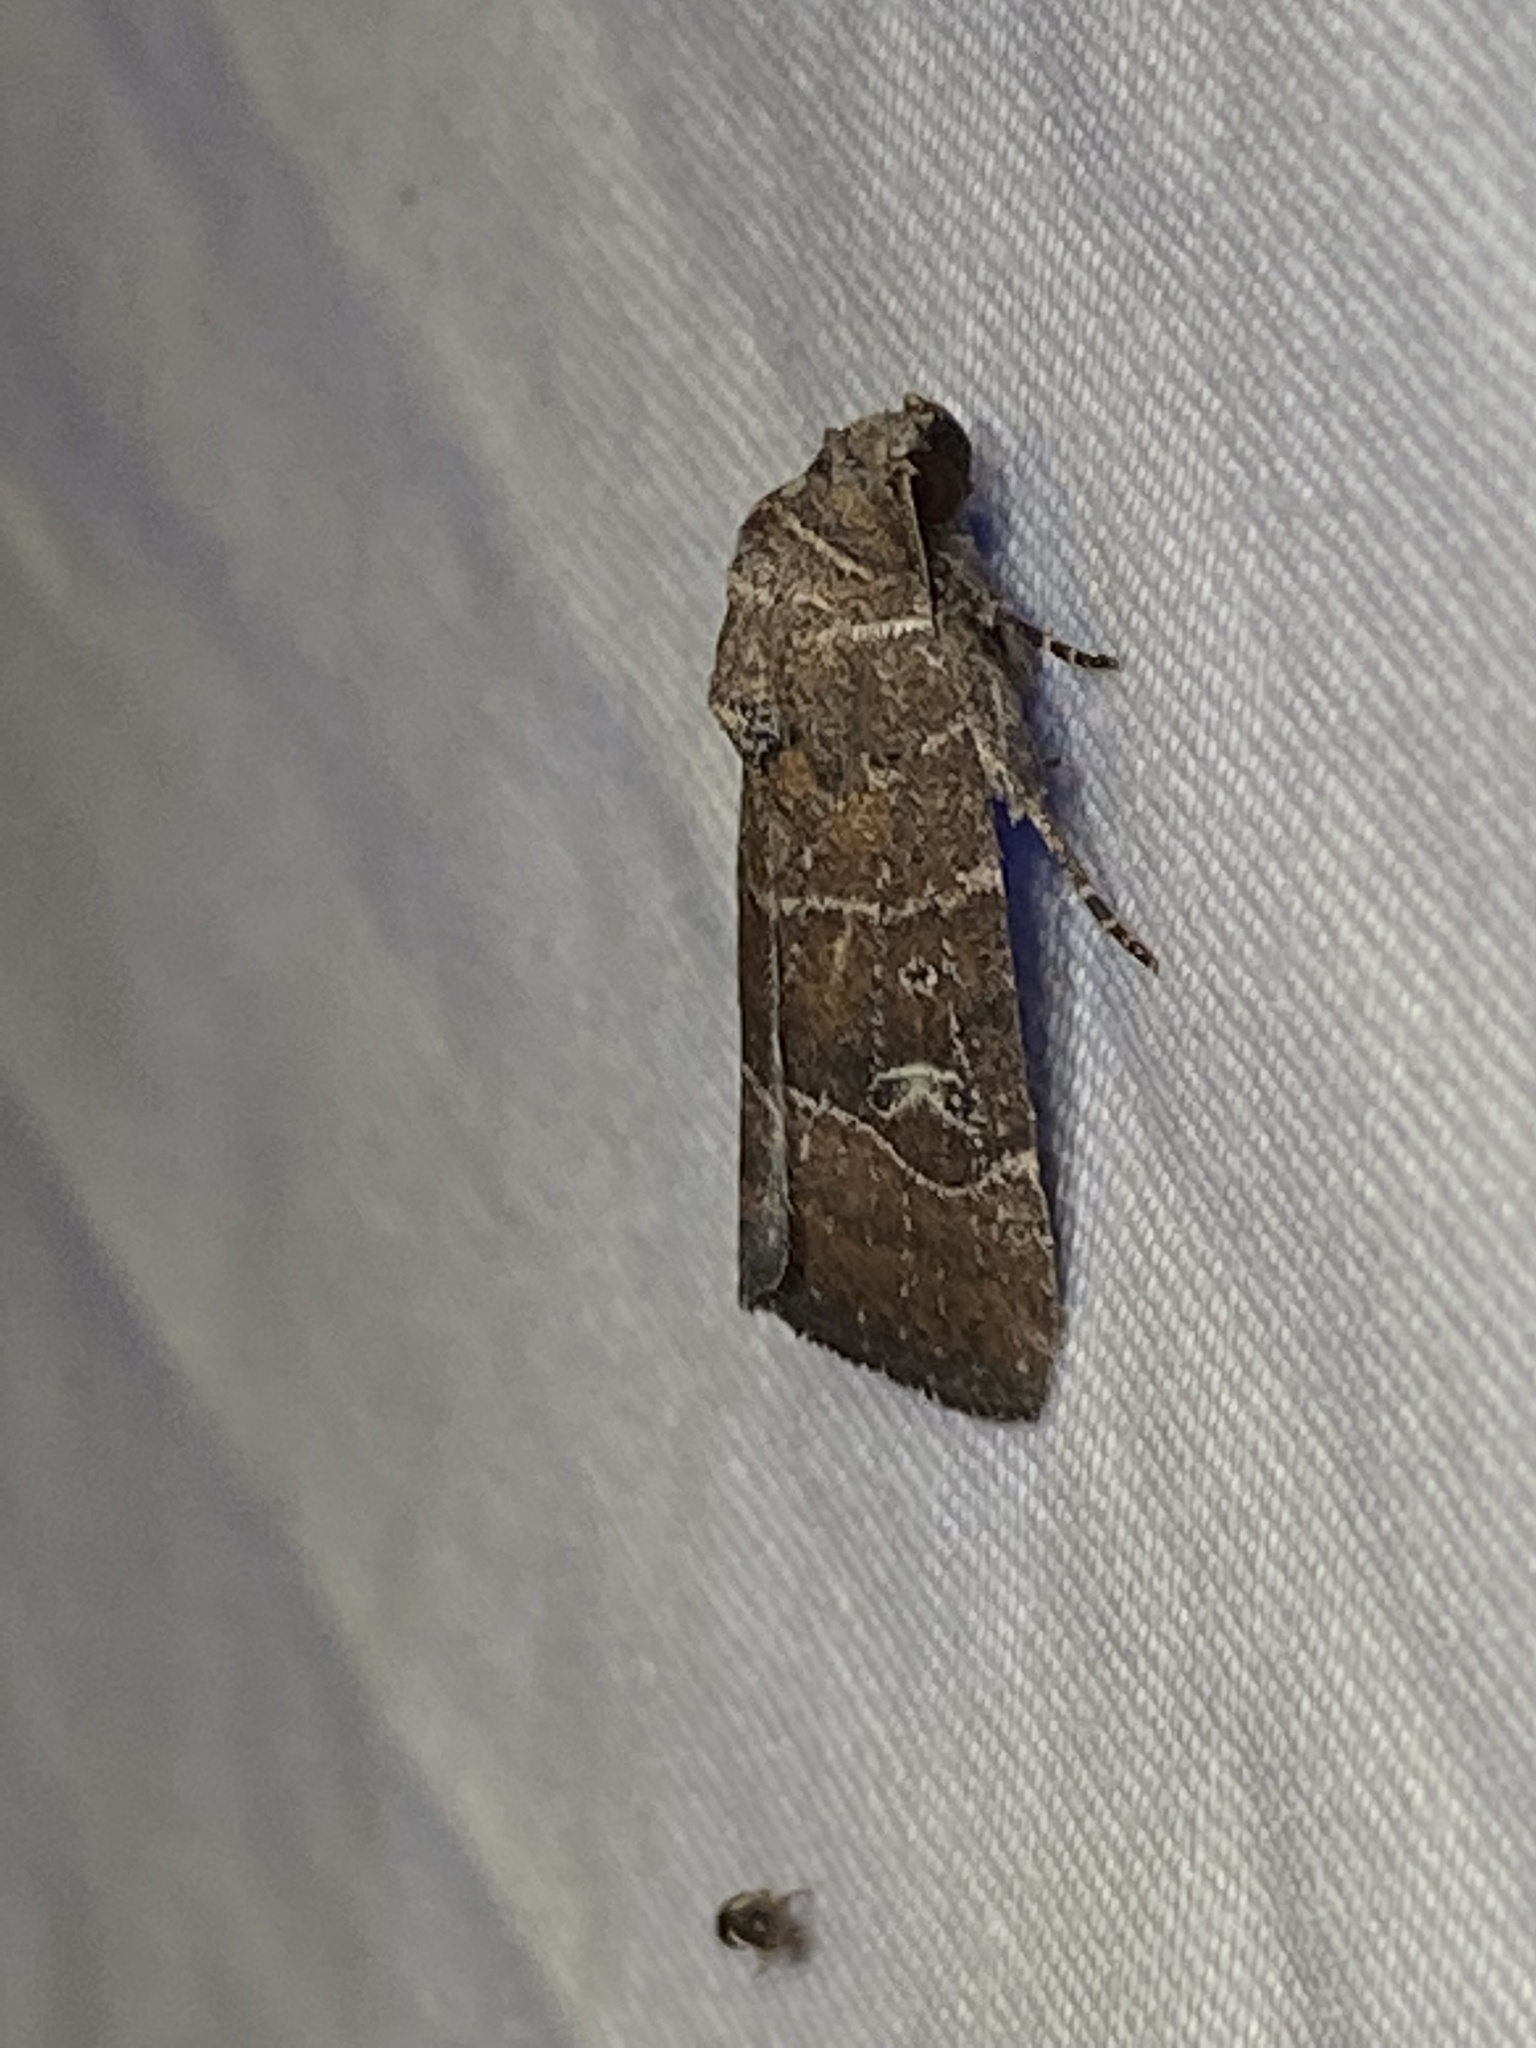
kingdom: Animalia
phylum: Arthropoda
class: Insecta
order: Lepidoptera
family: Noctuidae
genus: Elaphria
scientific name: Elaphria grata
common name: Grateful midget moth
